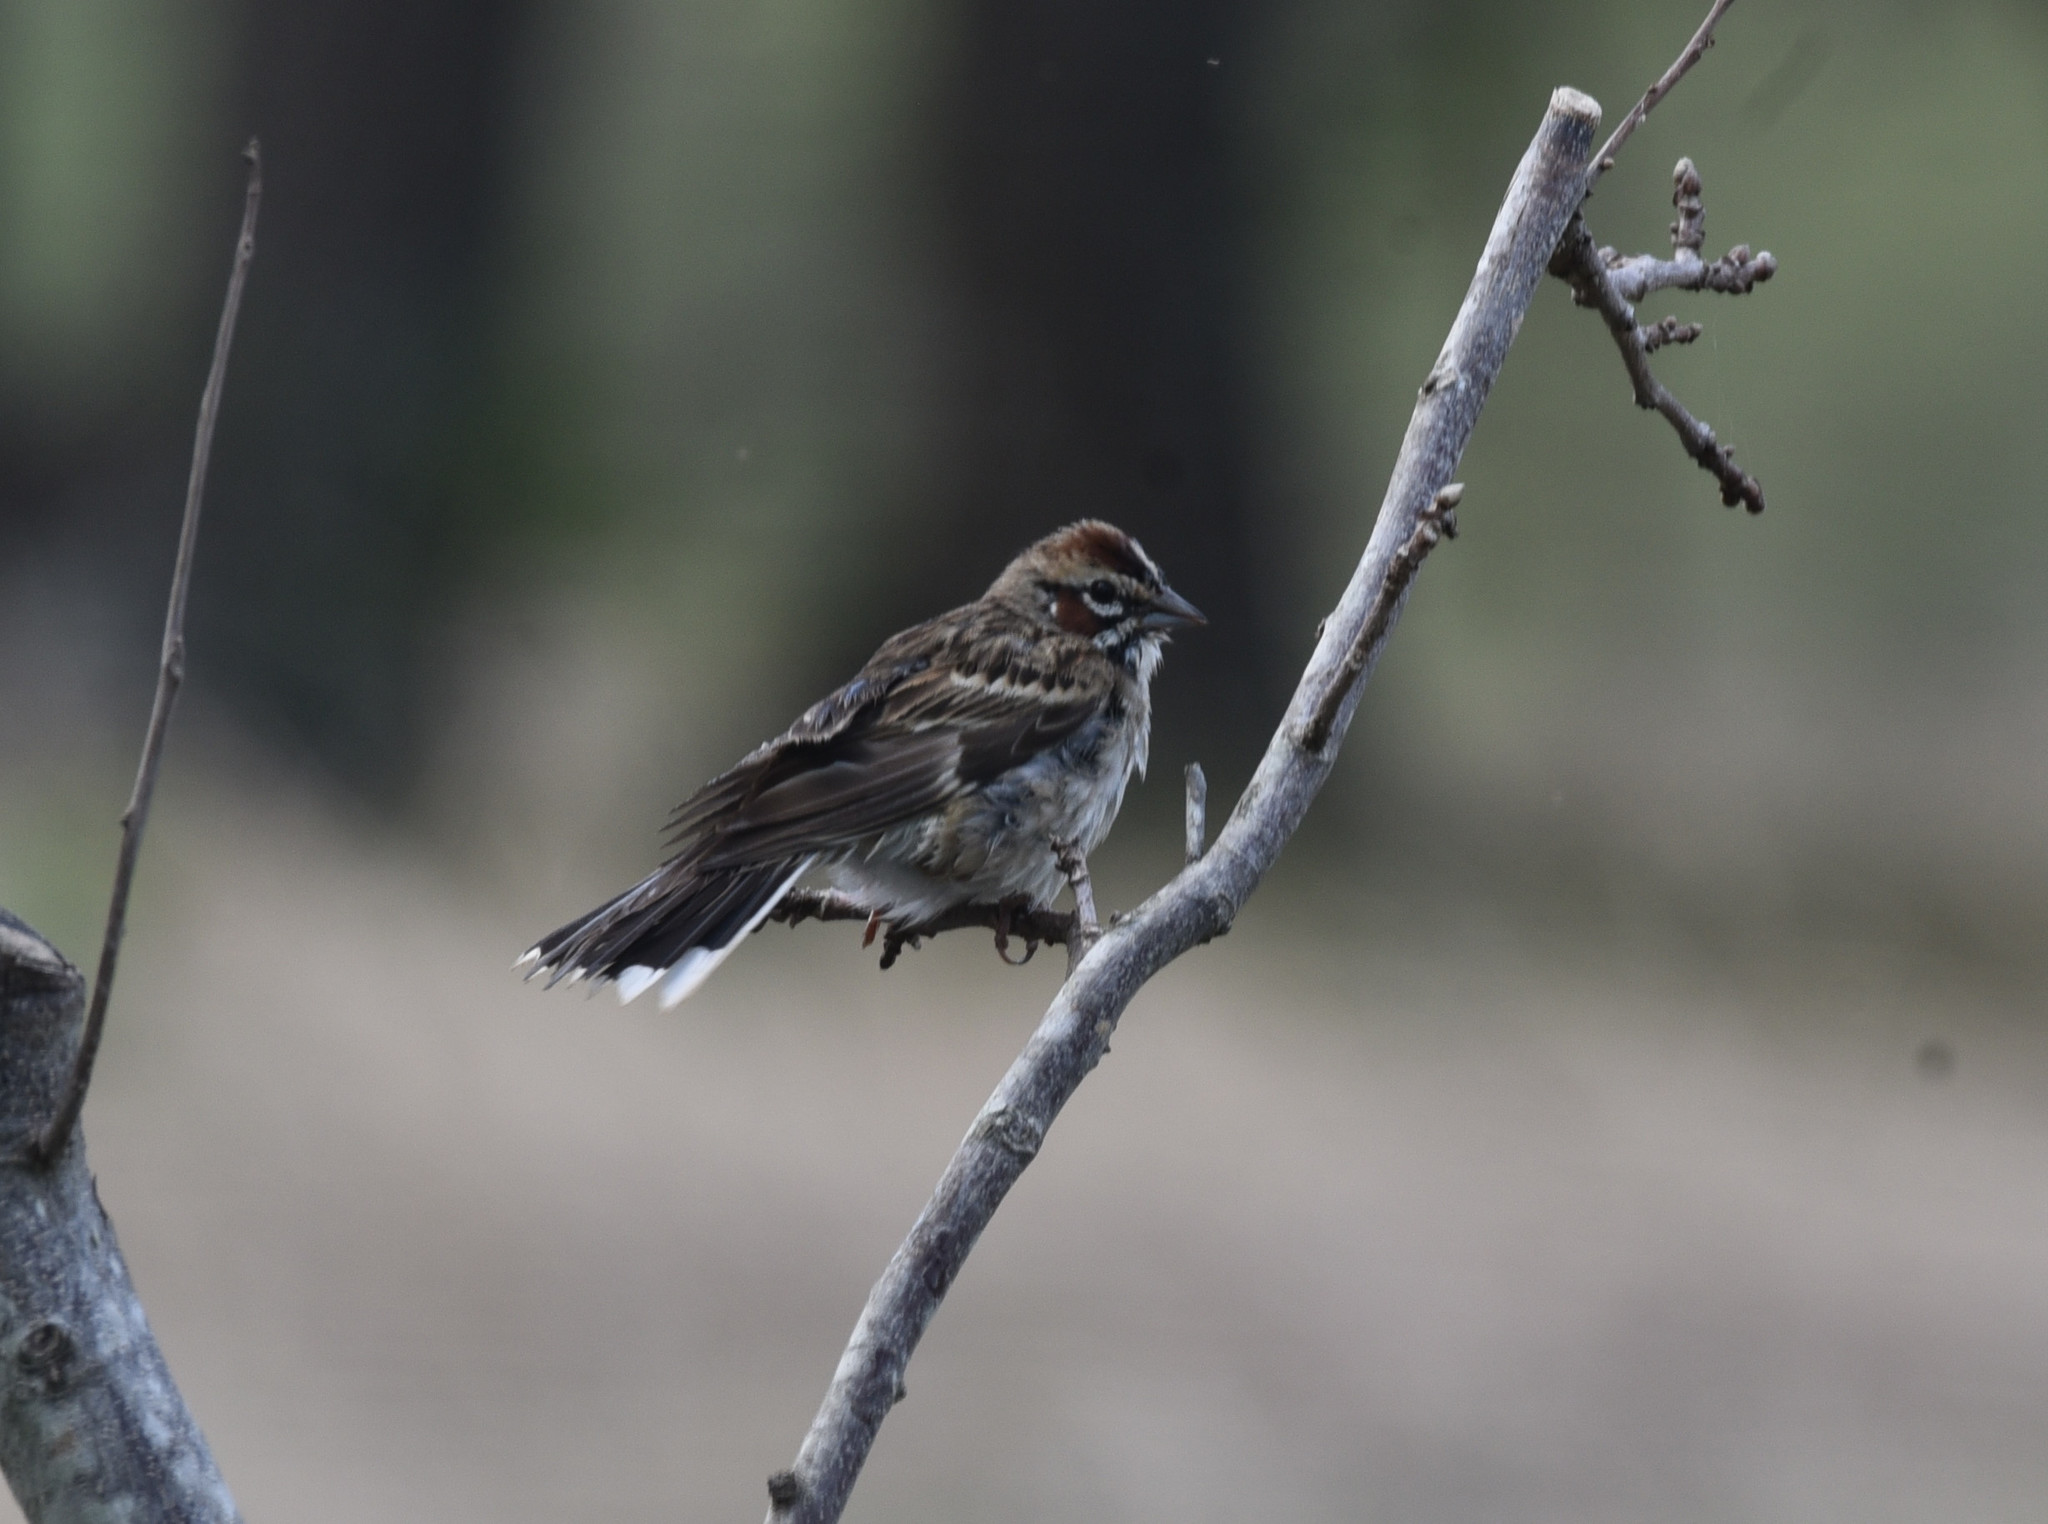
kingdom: Animalia
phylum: Chordata
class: Aves
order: Passeriformes
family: Passerellidae
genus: Chondestes
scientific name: Chondestes grammacus
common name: Lark sparrow
